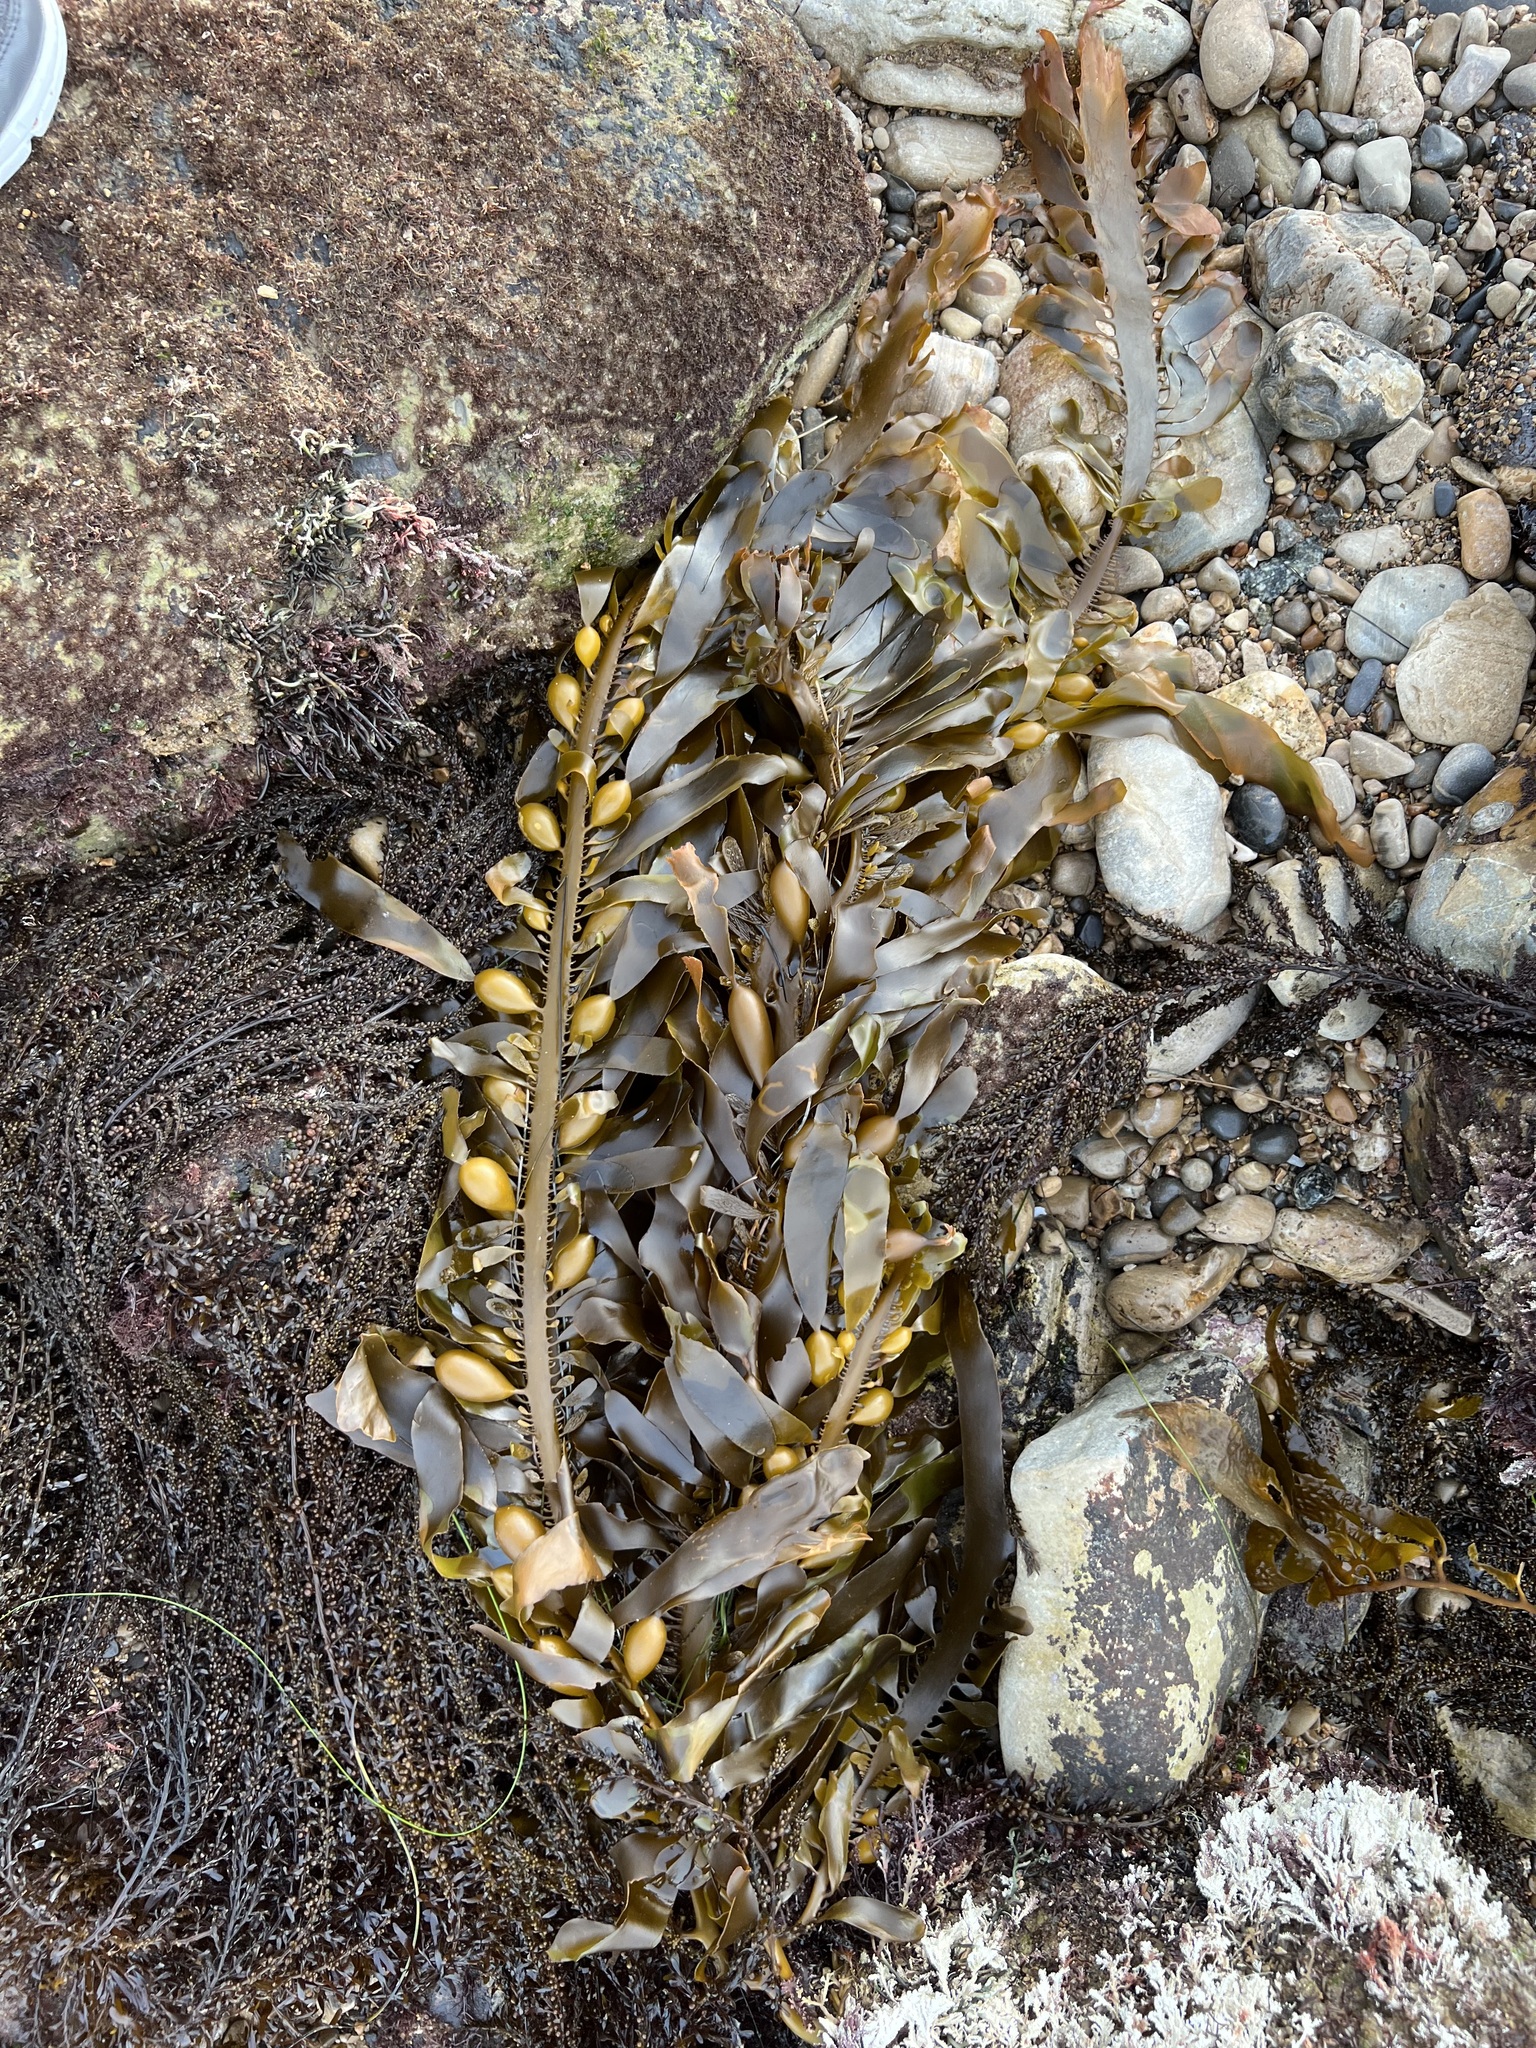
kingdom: Chromista
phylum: Ochrophyta
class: Phaeophyceae
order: Laminariales
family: Lessoniaceae
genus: Egregia
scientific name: Egregia menziesii
